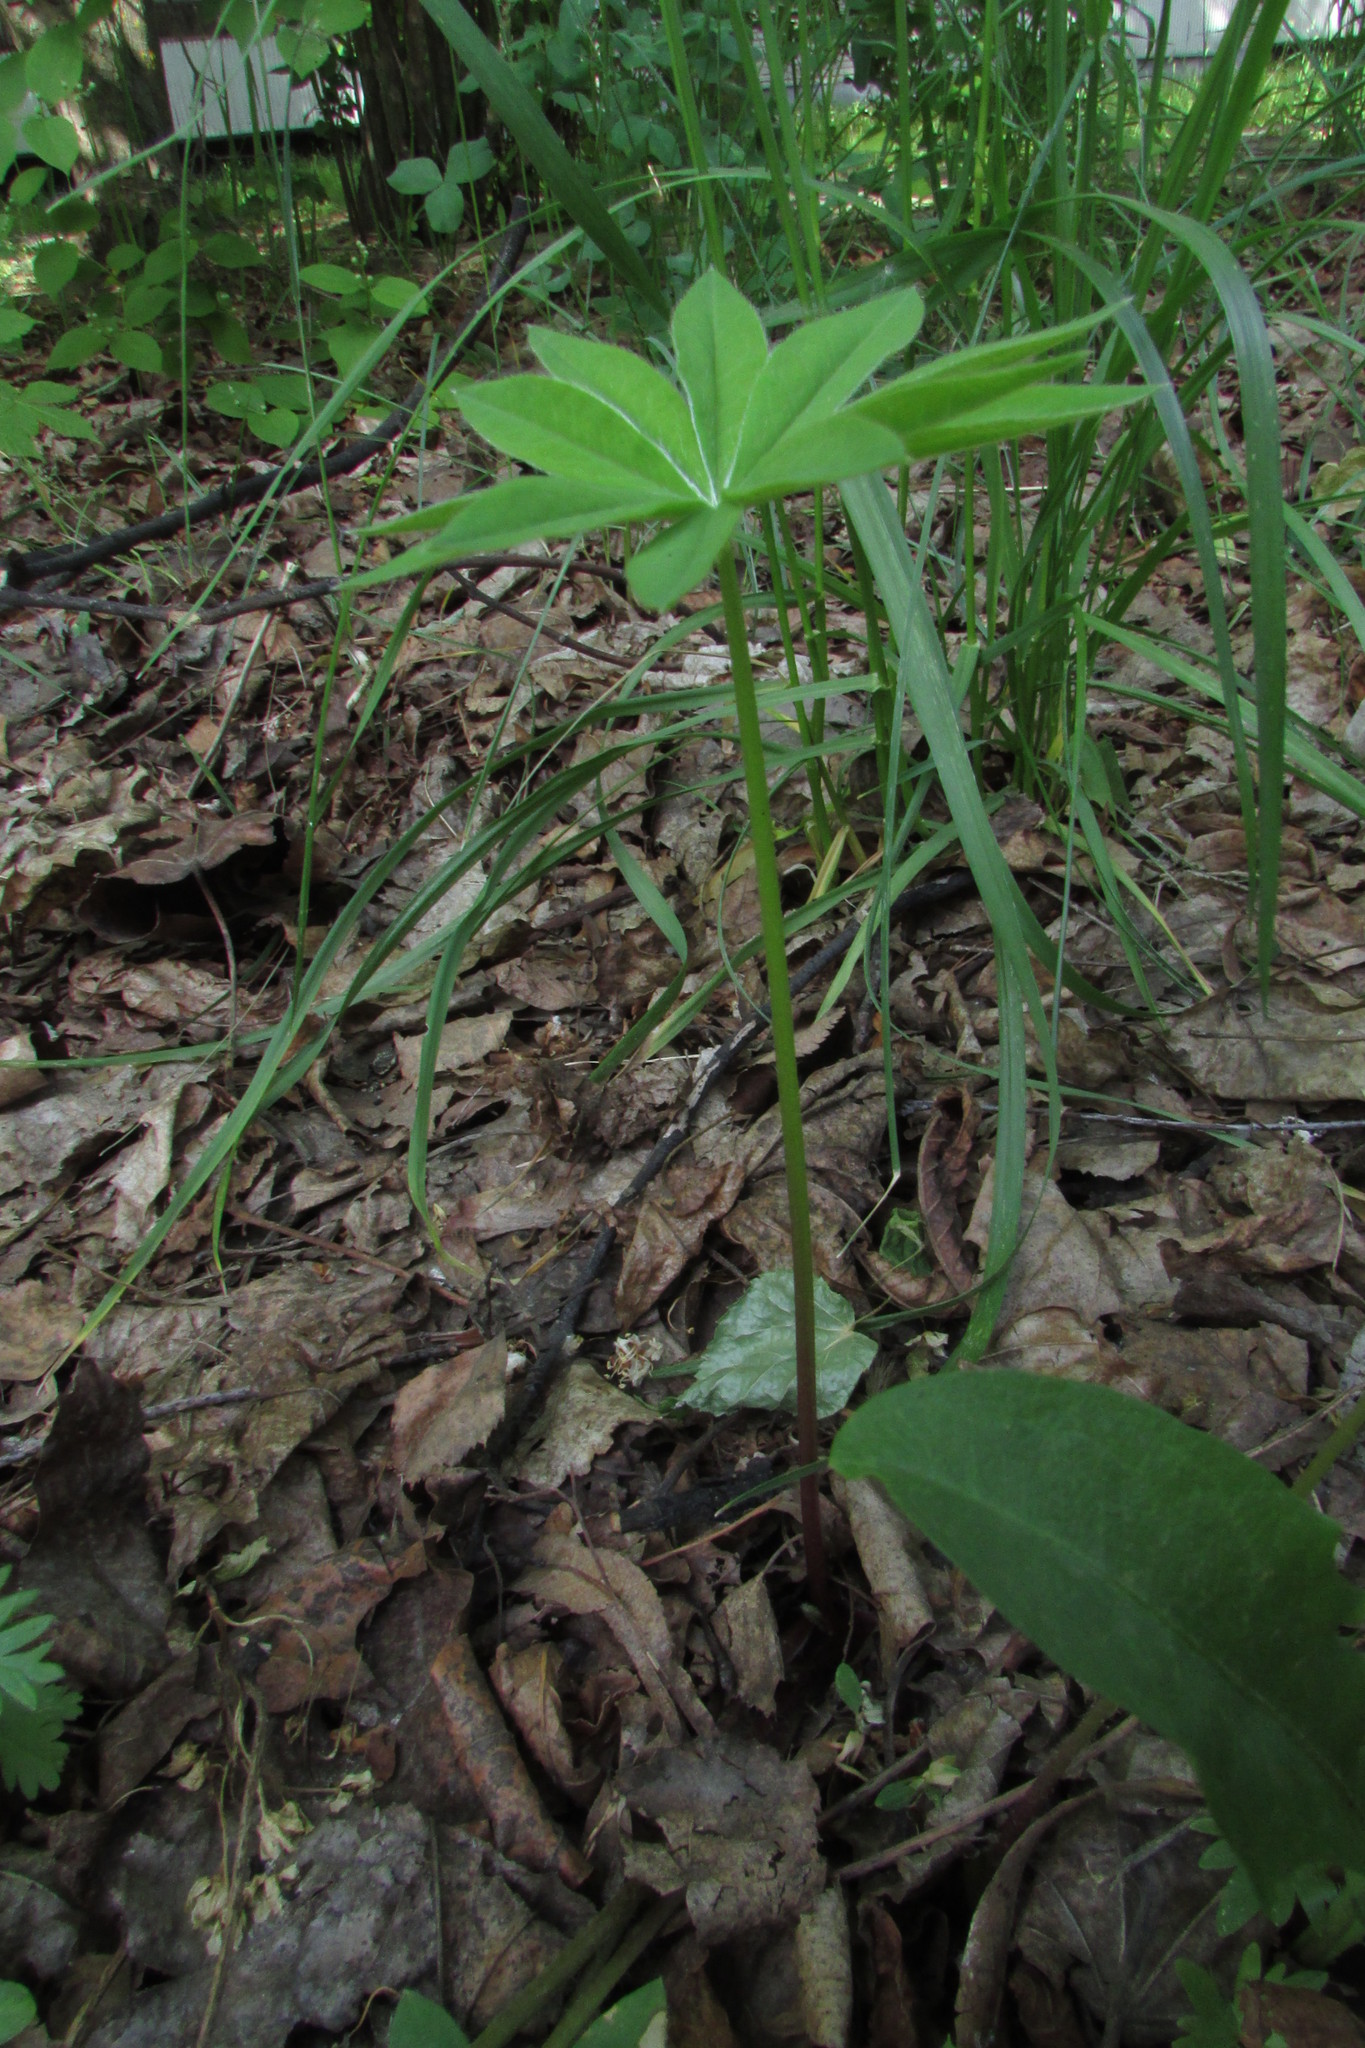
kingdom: Plantae
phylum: Tracheophyta
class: Magnoliopsida
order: Fabales
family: Fabaceae
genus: Lupinus
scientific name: Lupinus polyphyllus
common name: Garden lupin
